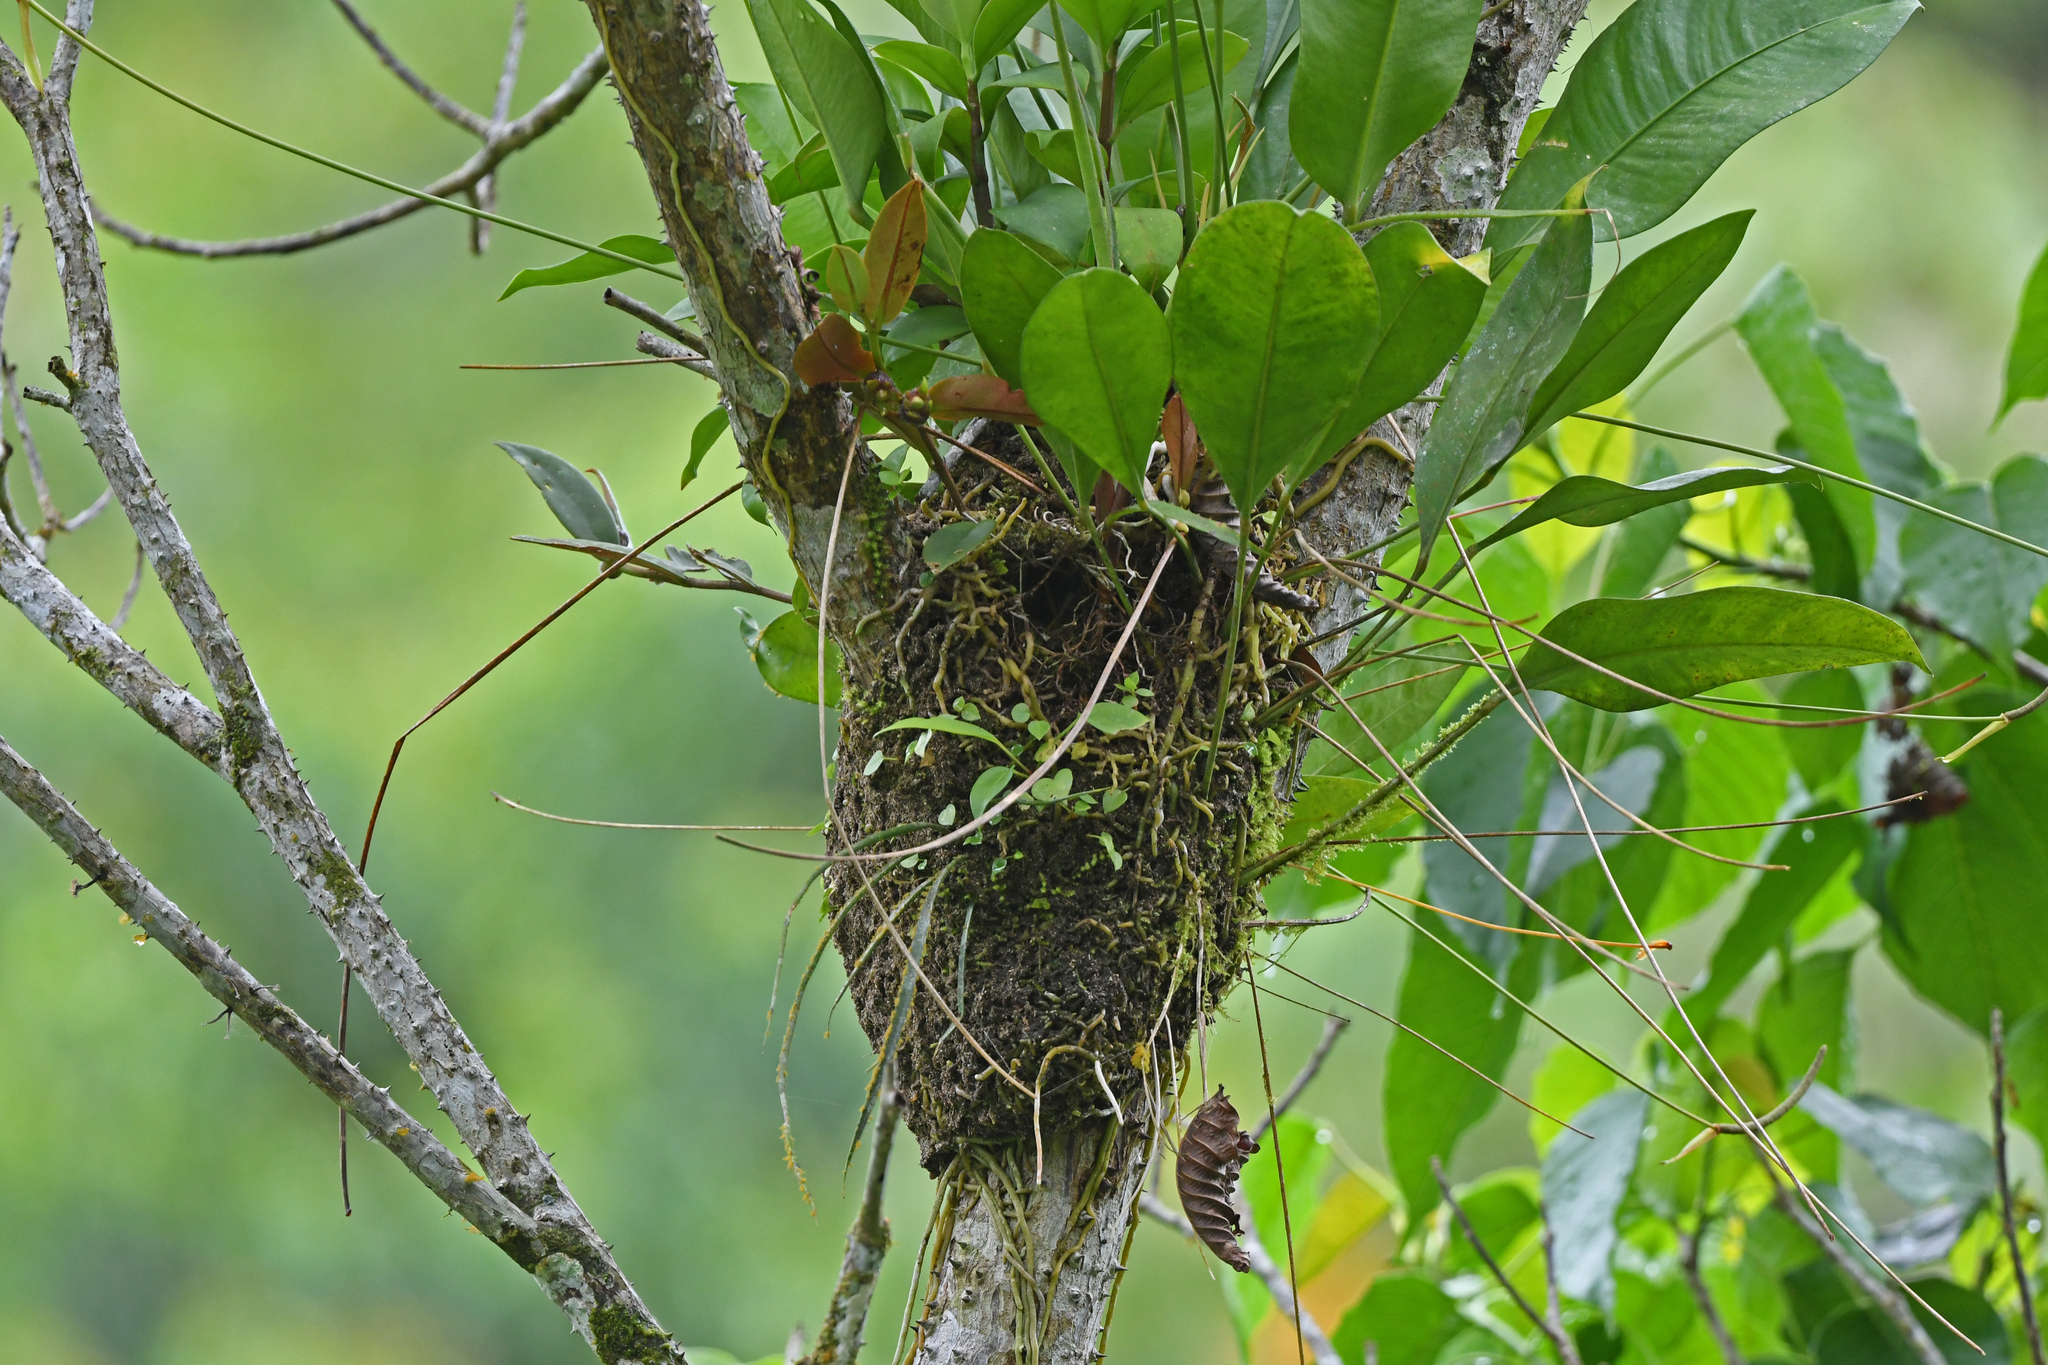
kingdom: Animalia
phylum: Chordata
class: Aves
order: Passeriformes
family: Tyrannidae
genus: Myiozetetes
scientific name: Myiozetetes similis
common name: Social flycatcher
